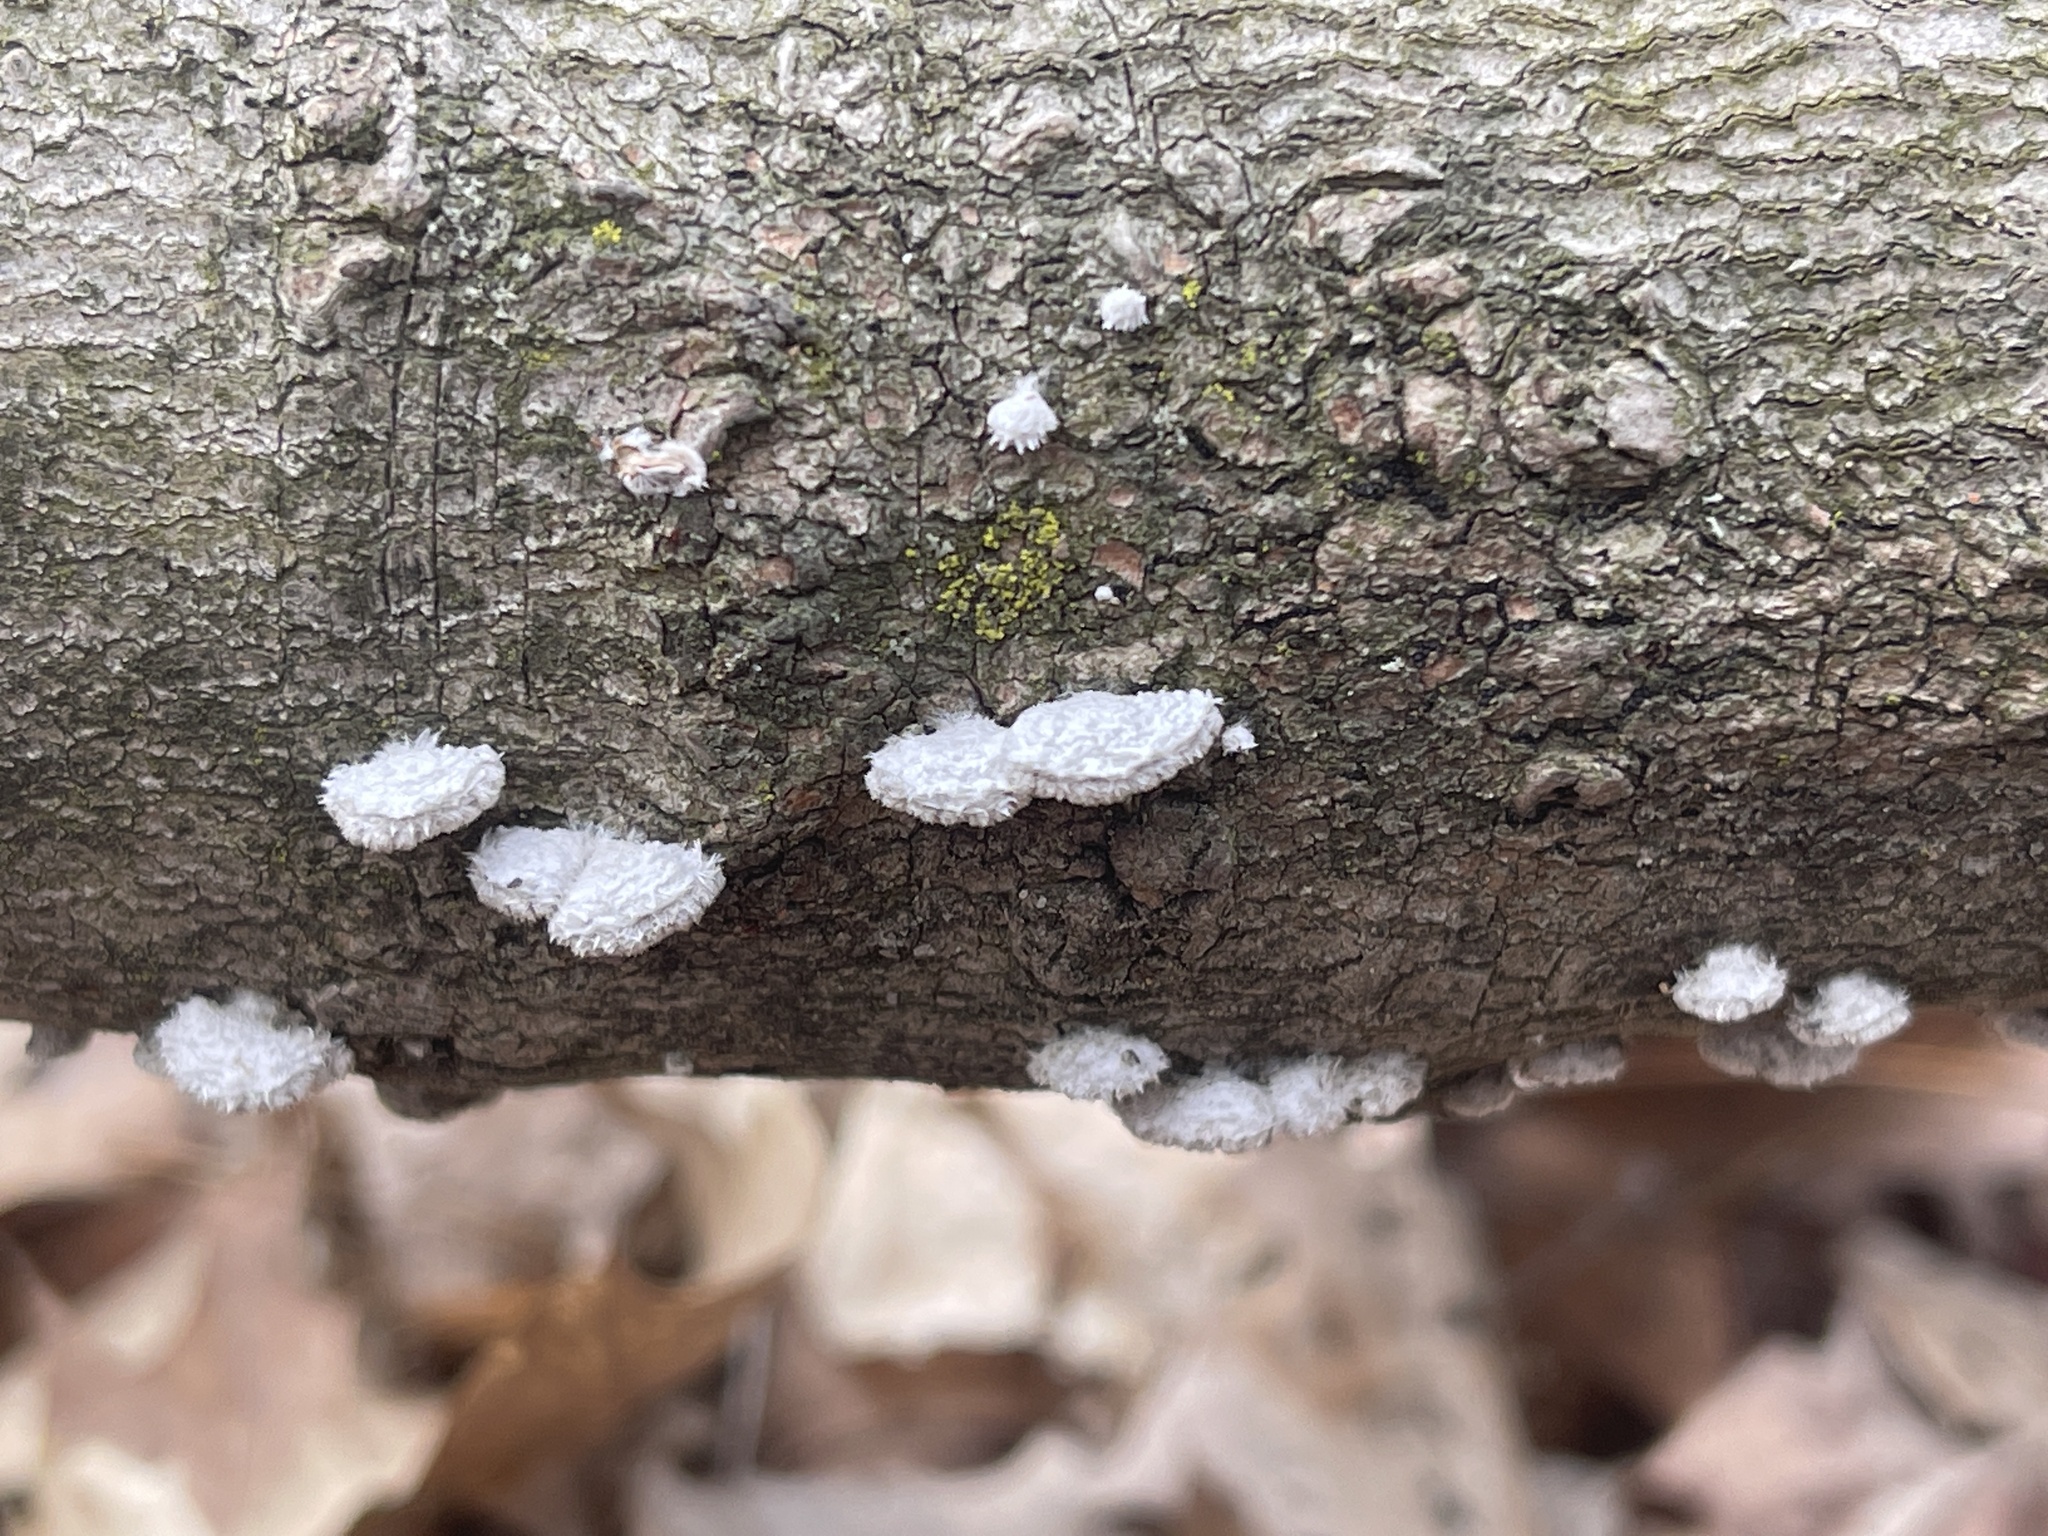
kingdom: Fungi
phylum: Basidiomycota
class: Agaricomycetes
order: Agaricales
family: Schizophyllaceae
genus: Schizophyllum
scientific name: Schizophyllum commune
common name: Common porecrust
